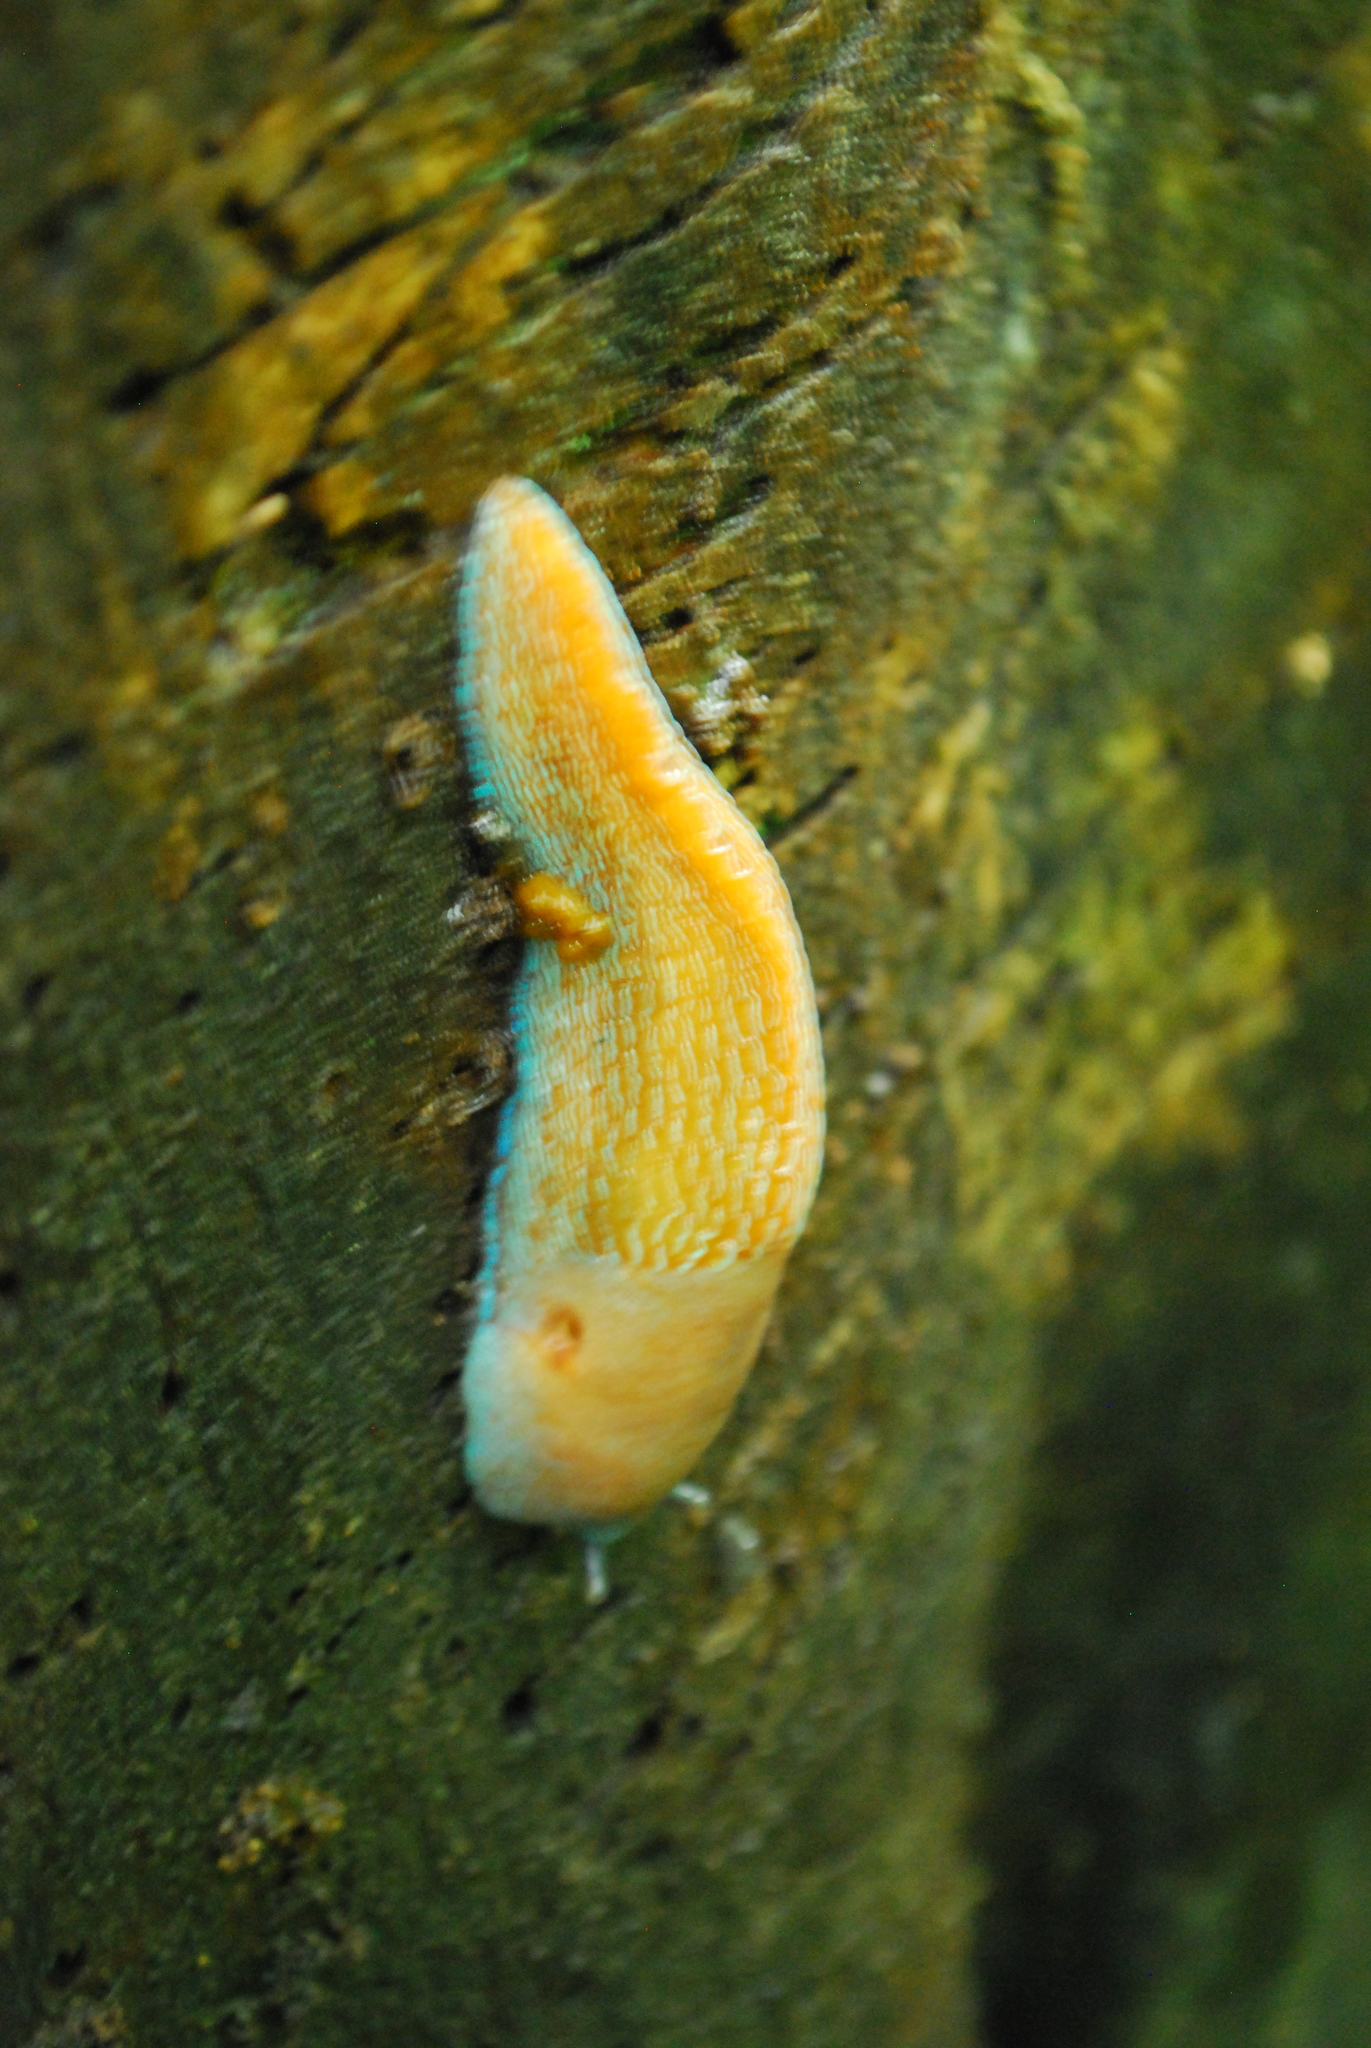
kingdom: Animalia
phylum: Mollusca
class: Gastropoda
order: Stylommatophora
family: Limacidae
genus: Bielzia
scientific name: Bielzia coerulans
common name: Carpathian blue slug
